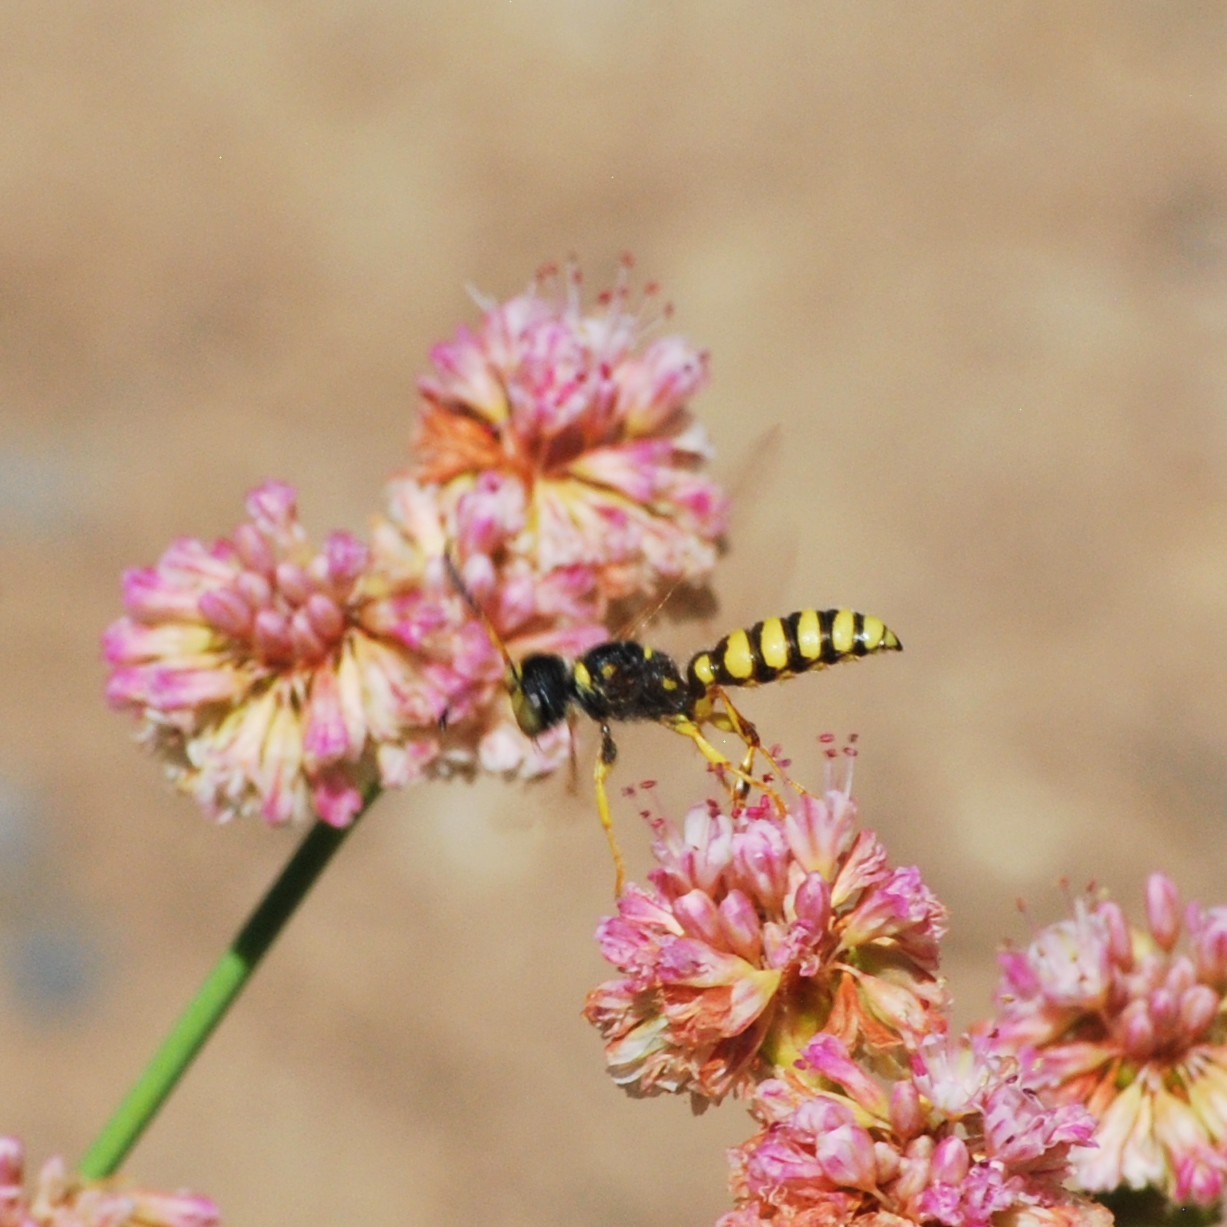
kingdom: Animalia
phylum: Arthropoda
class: Insecta
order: Hymenoptera
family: Crabronidae
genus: Cerceris
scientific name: Cerceris sextoides
